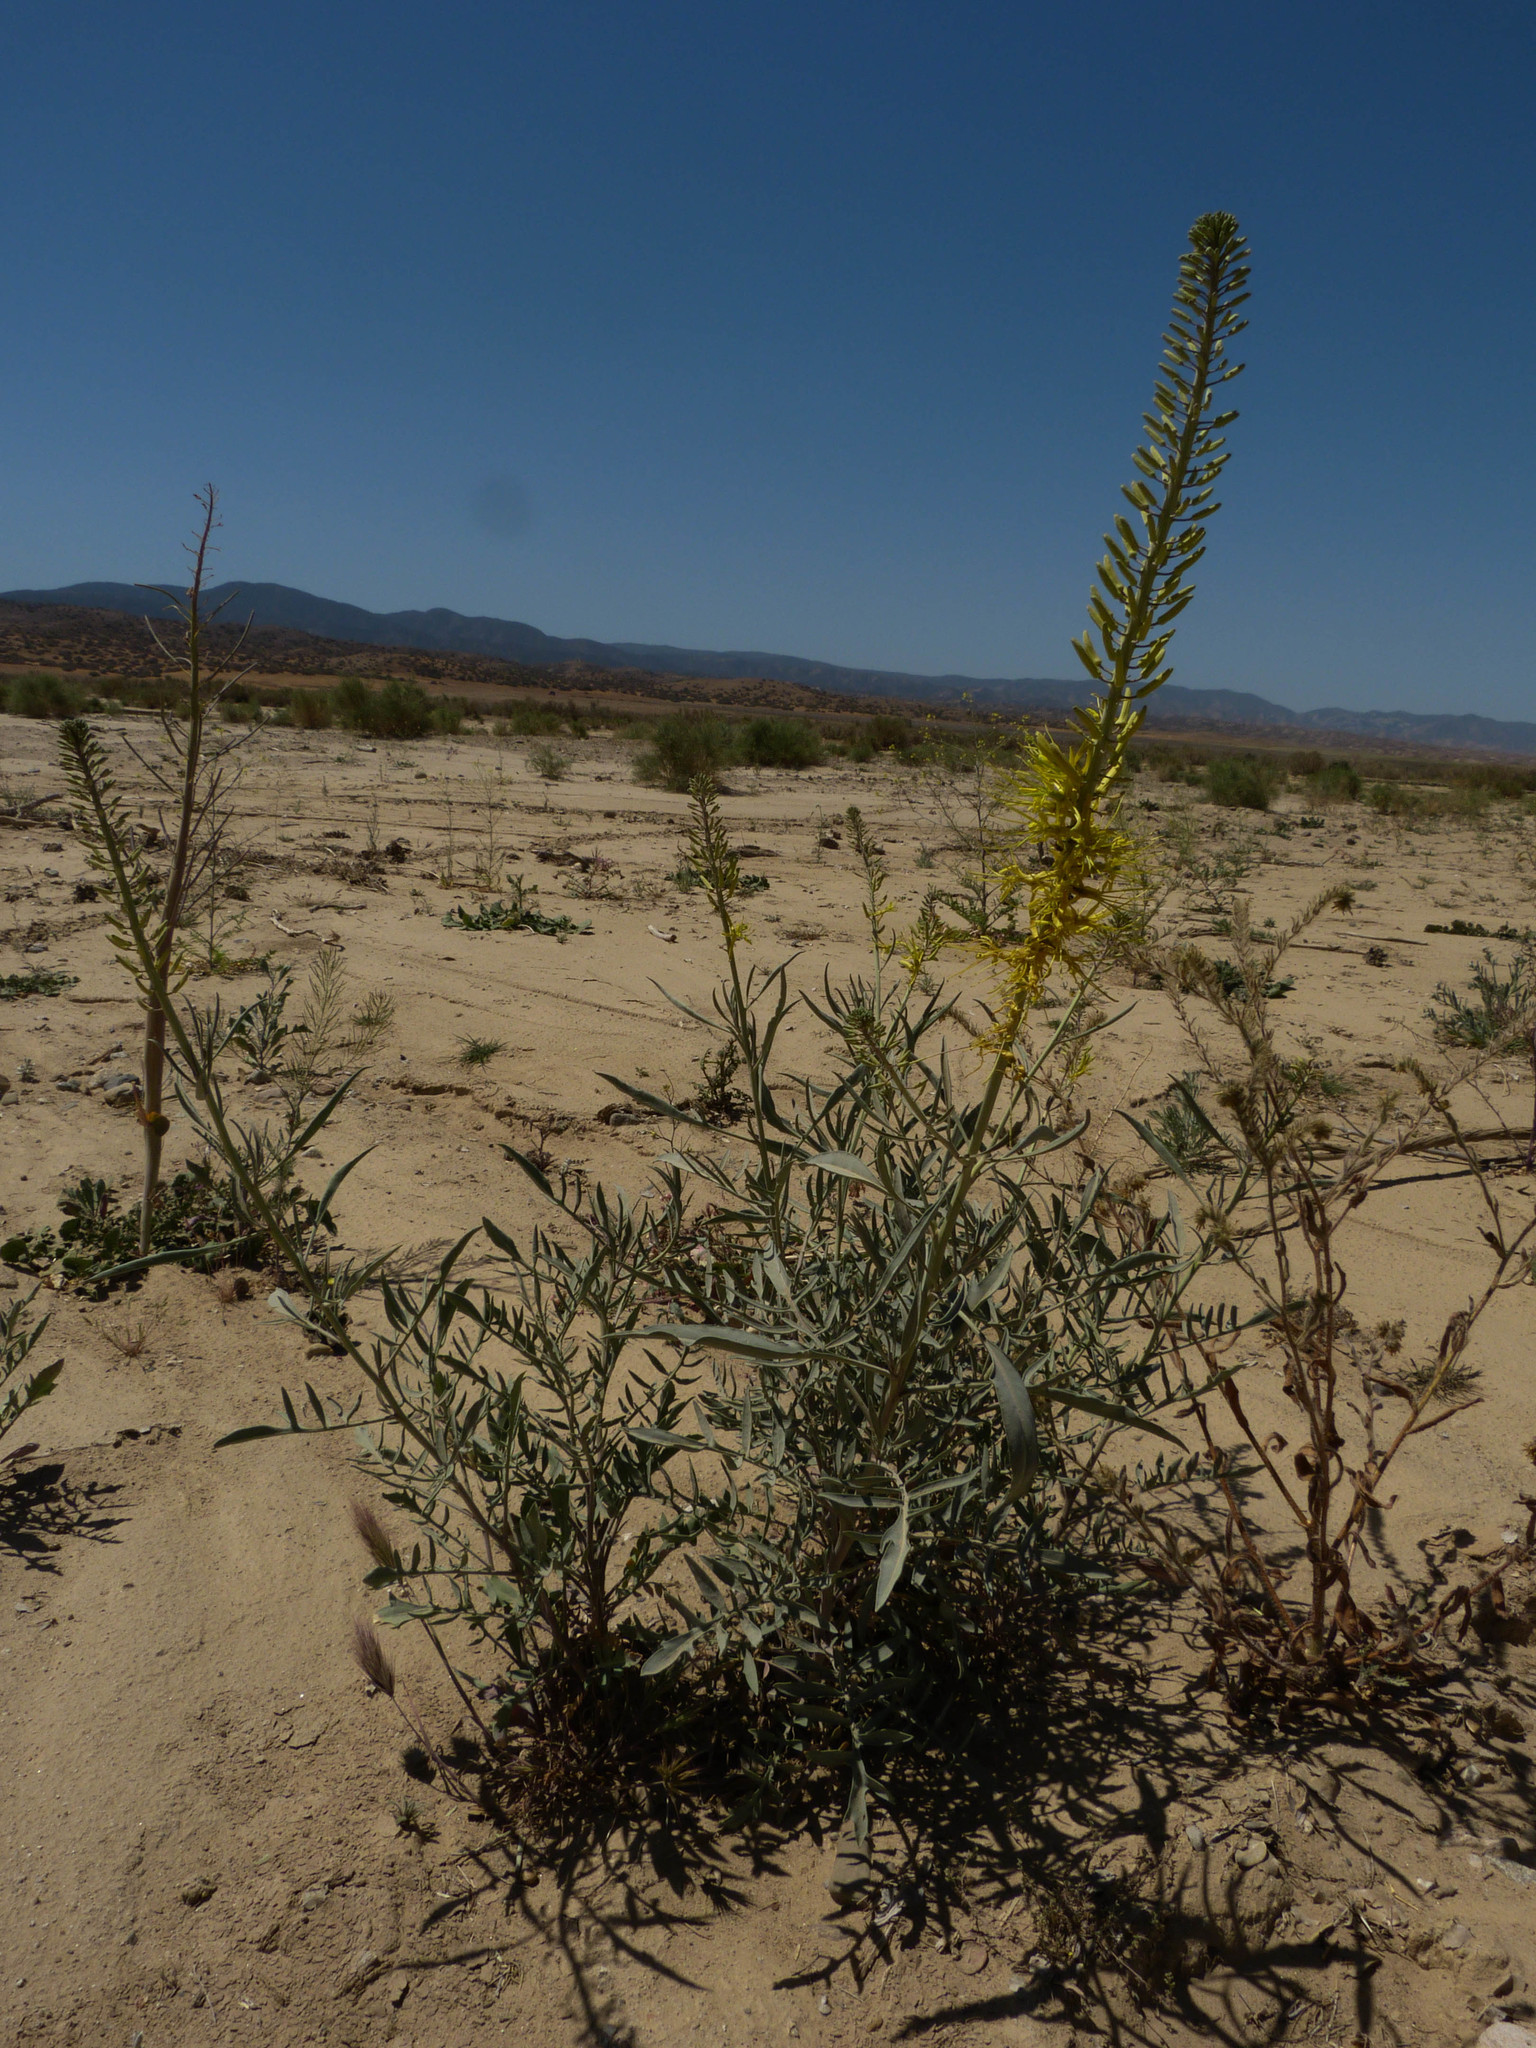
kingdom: Plantae
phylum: Tracheophyta
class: Magnoliopsida
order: Brassicales
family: Brassicaceae
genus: Stanleya
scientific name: Stanleya pinnata
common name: Prince's-plume
